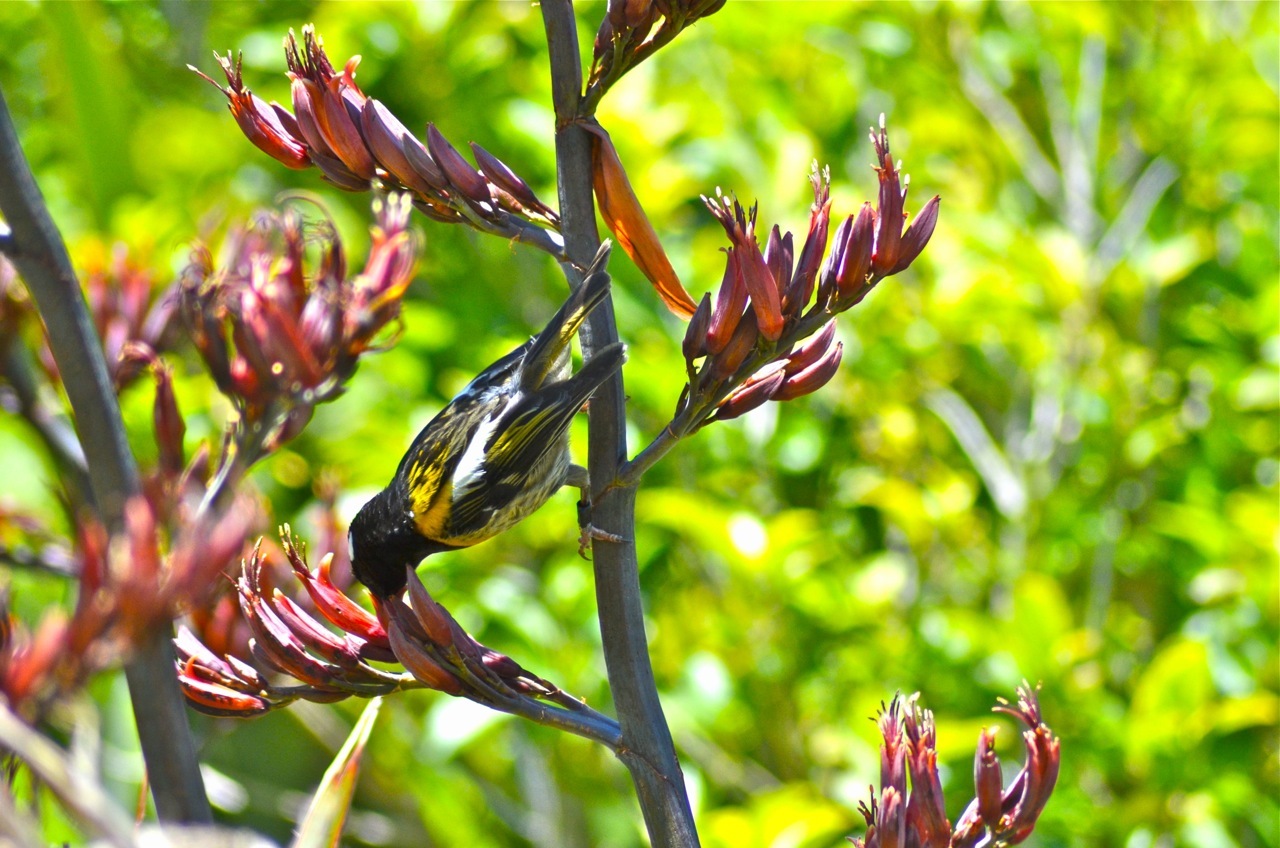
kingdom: Animalia
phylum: Chordata
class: Aves
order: Passeriformes
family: Notiomystidae
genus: Notiomystis
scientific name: Notiomystis cincta
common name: Stitchbird
